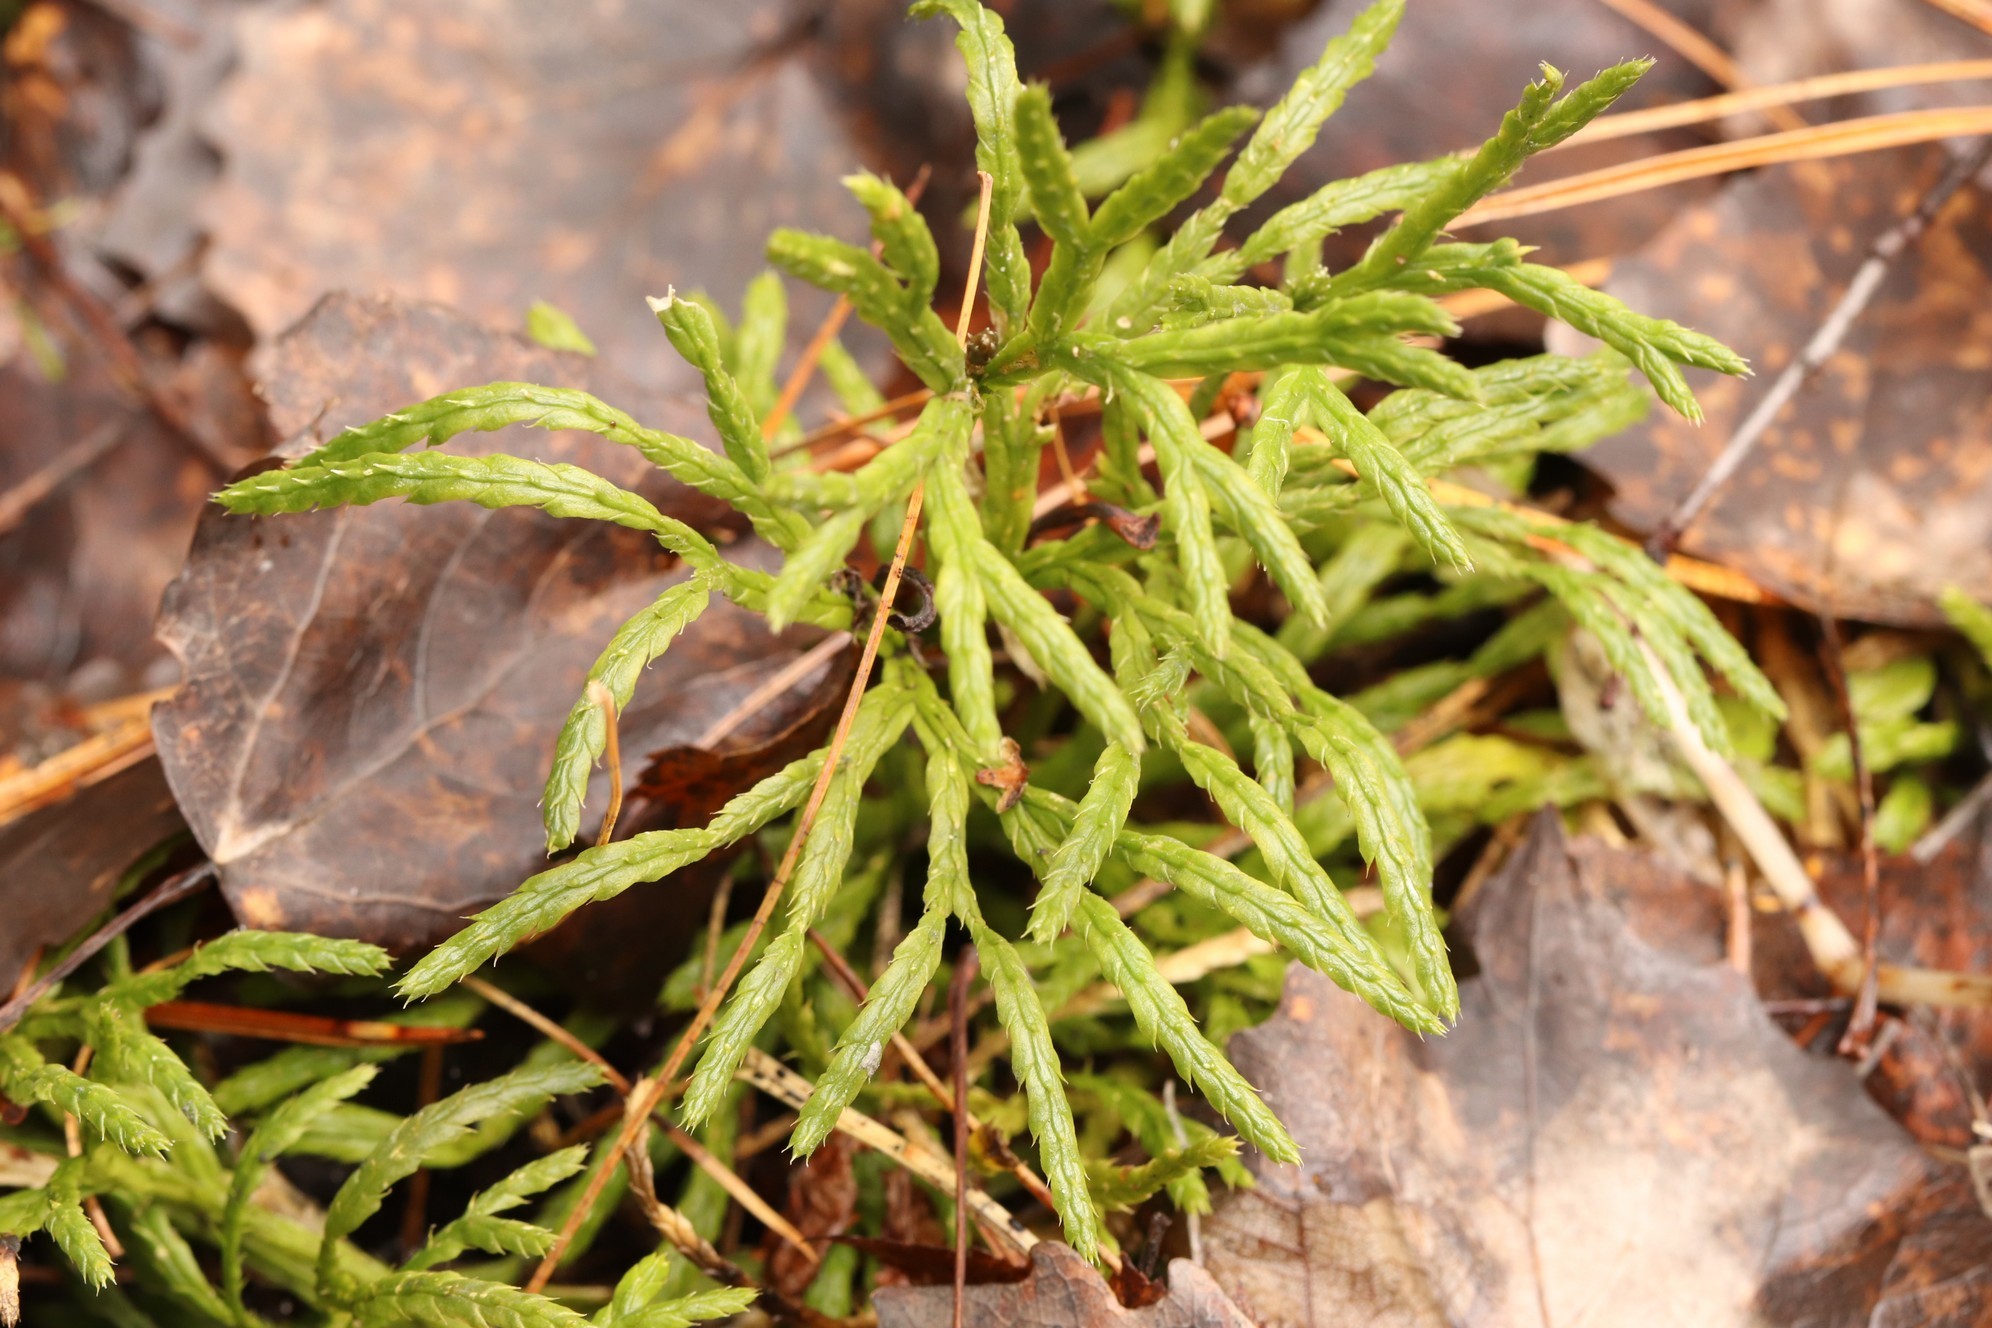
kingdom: Plantae
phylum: Tracheophyta
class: Lycopodiopsida
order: Lycopodiales
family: Lycopodiaceae
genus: Diphasiastrum
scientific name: Diphasiastrum complanatum
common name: Northern running-pine
